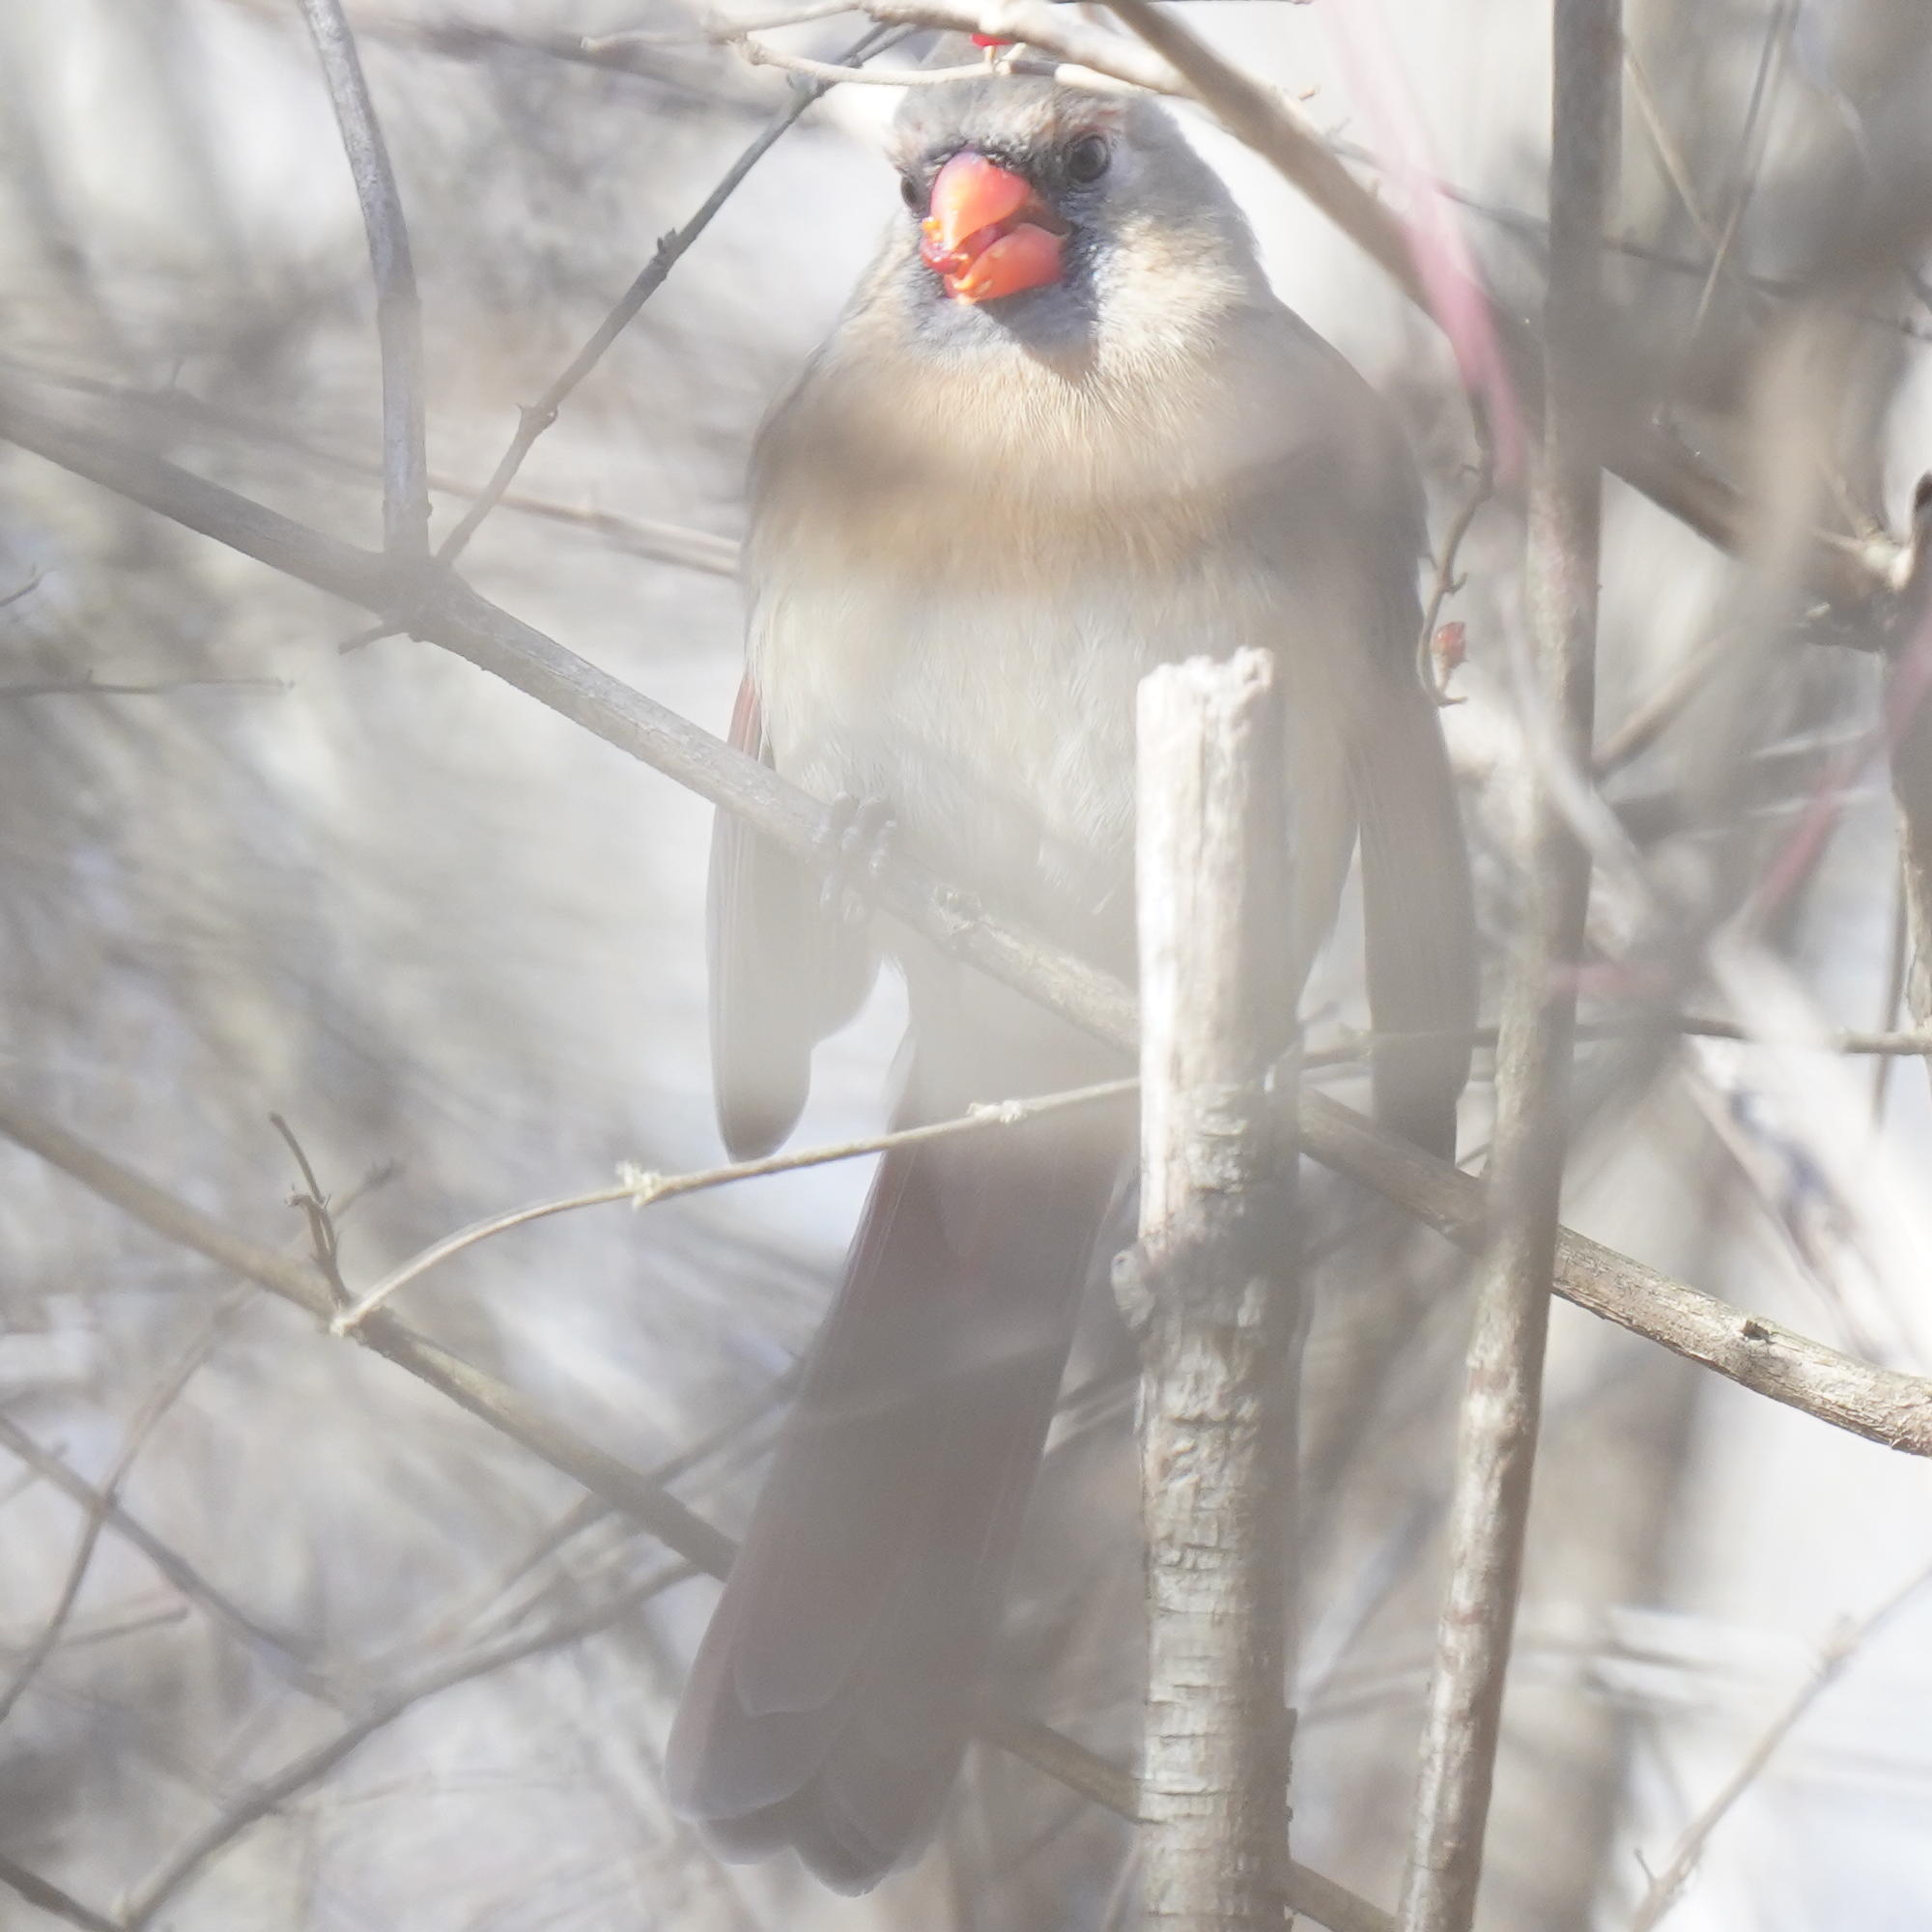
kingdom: Animalia
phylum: Chordata
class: Aves
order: Passeriformes
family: Cardinalidae
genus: Cardinalis
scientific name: Cardinalis cardinalis
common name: Northern cardinal
